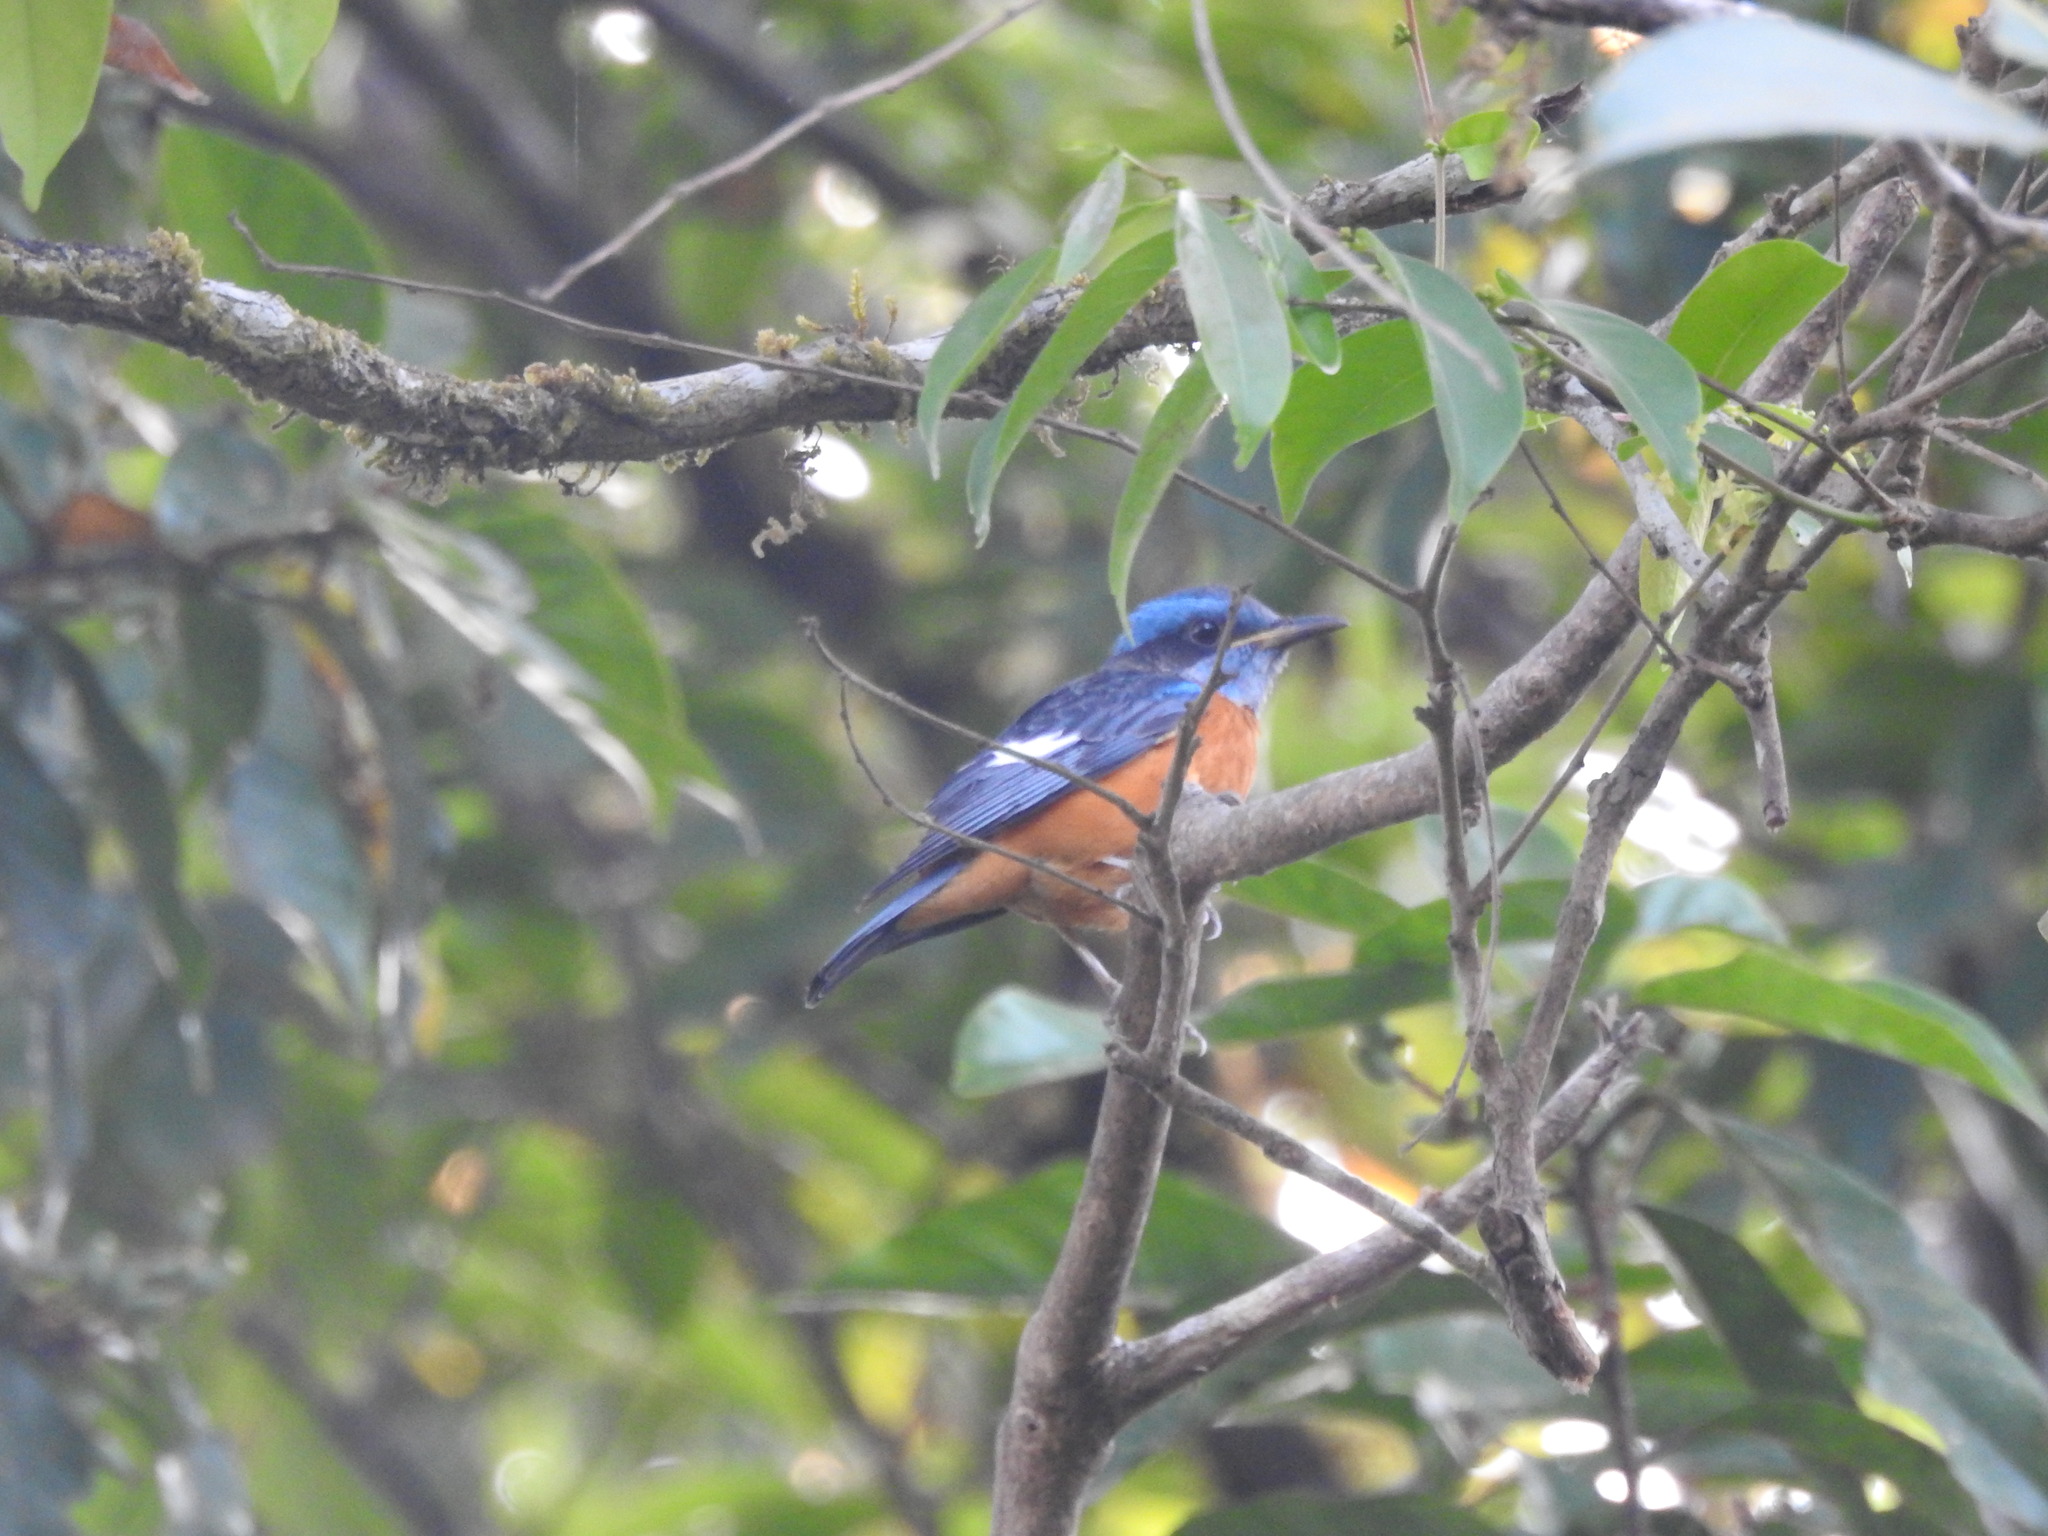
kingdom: Animalia
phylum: Chordata
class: Aves
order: Passeriformes
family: Muscicapidae
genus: Monticola
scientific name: Monticola cinclorhynchus
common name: Blue-capped rock thrush
